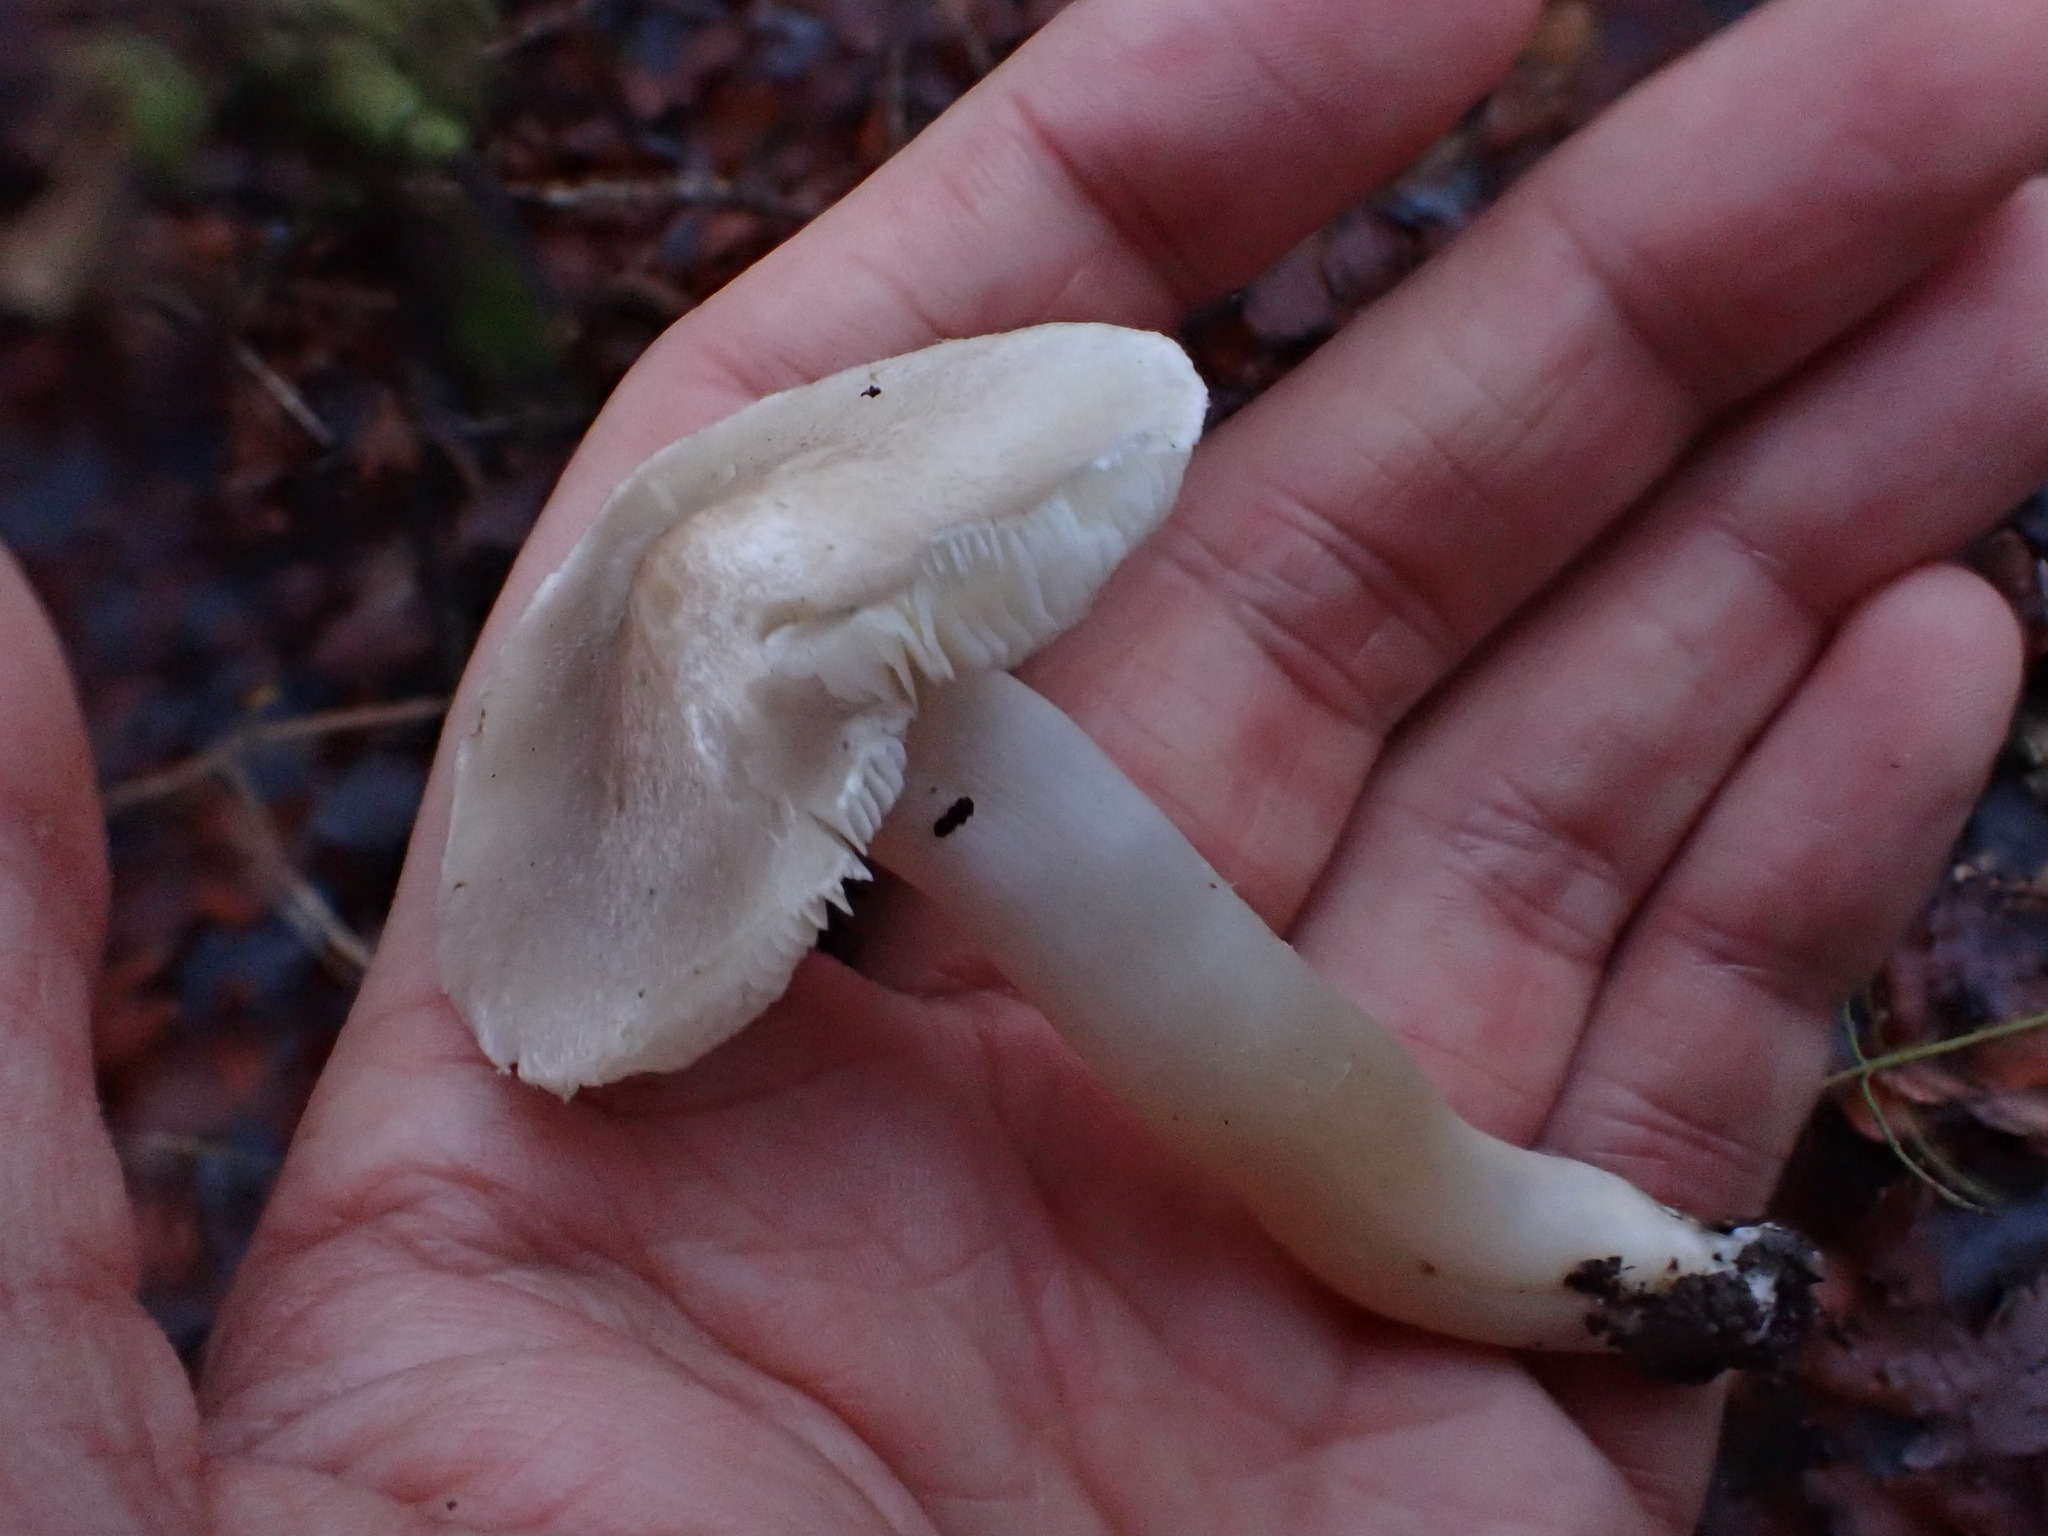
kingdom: Fungi
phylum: Basidiomycota
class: Agaricomycetes
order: Agaricales
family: Tricholomataceae
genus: Tricholoma
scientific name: Tricholoma argyraceum
